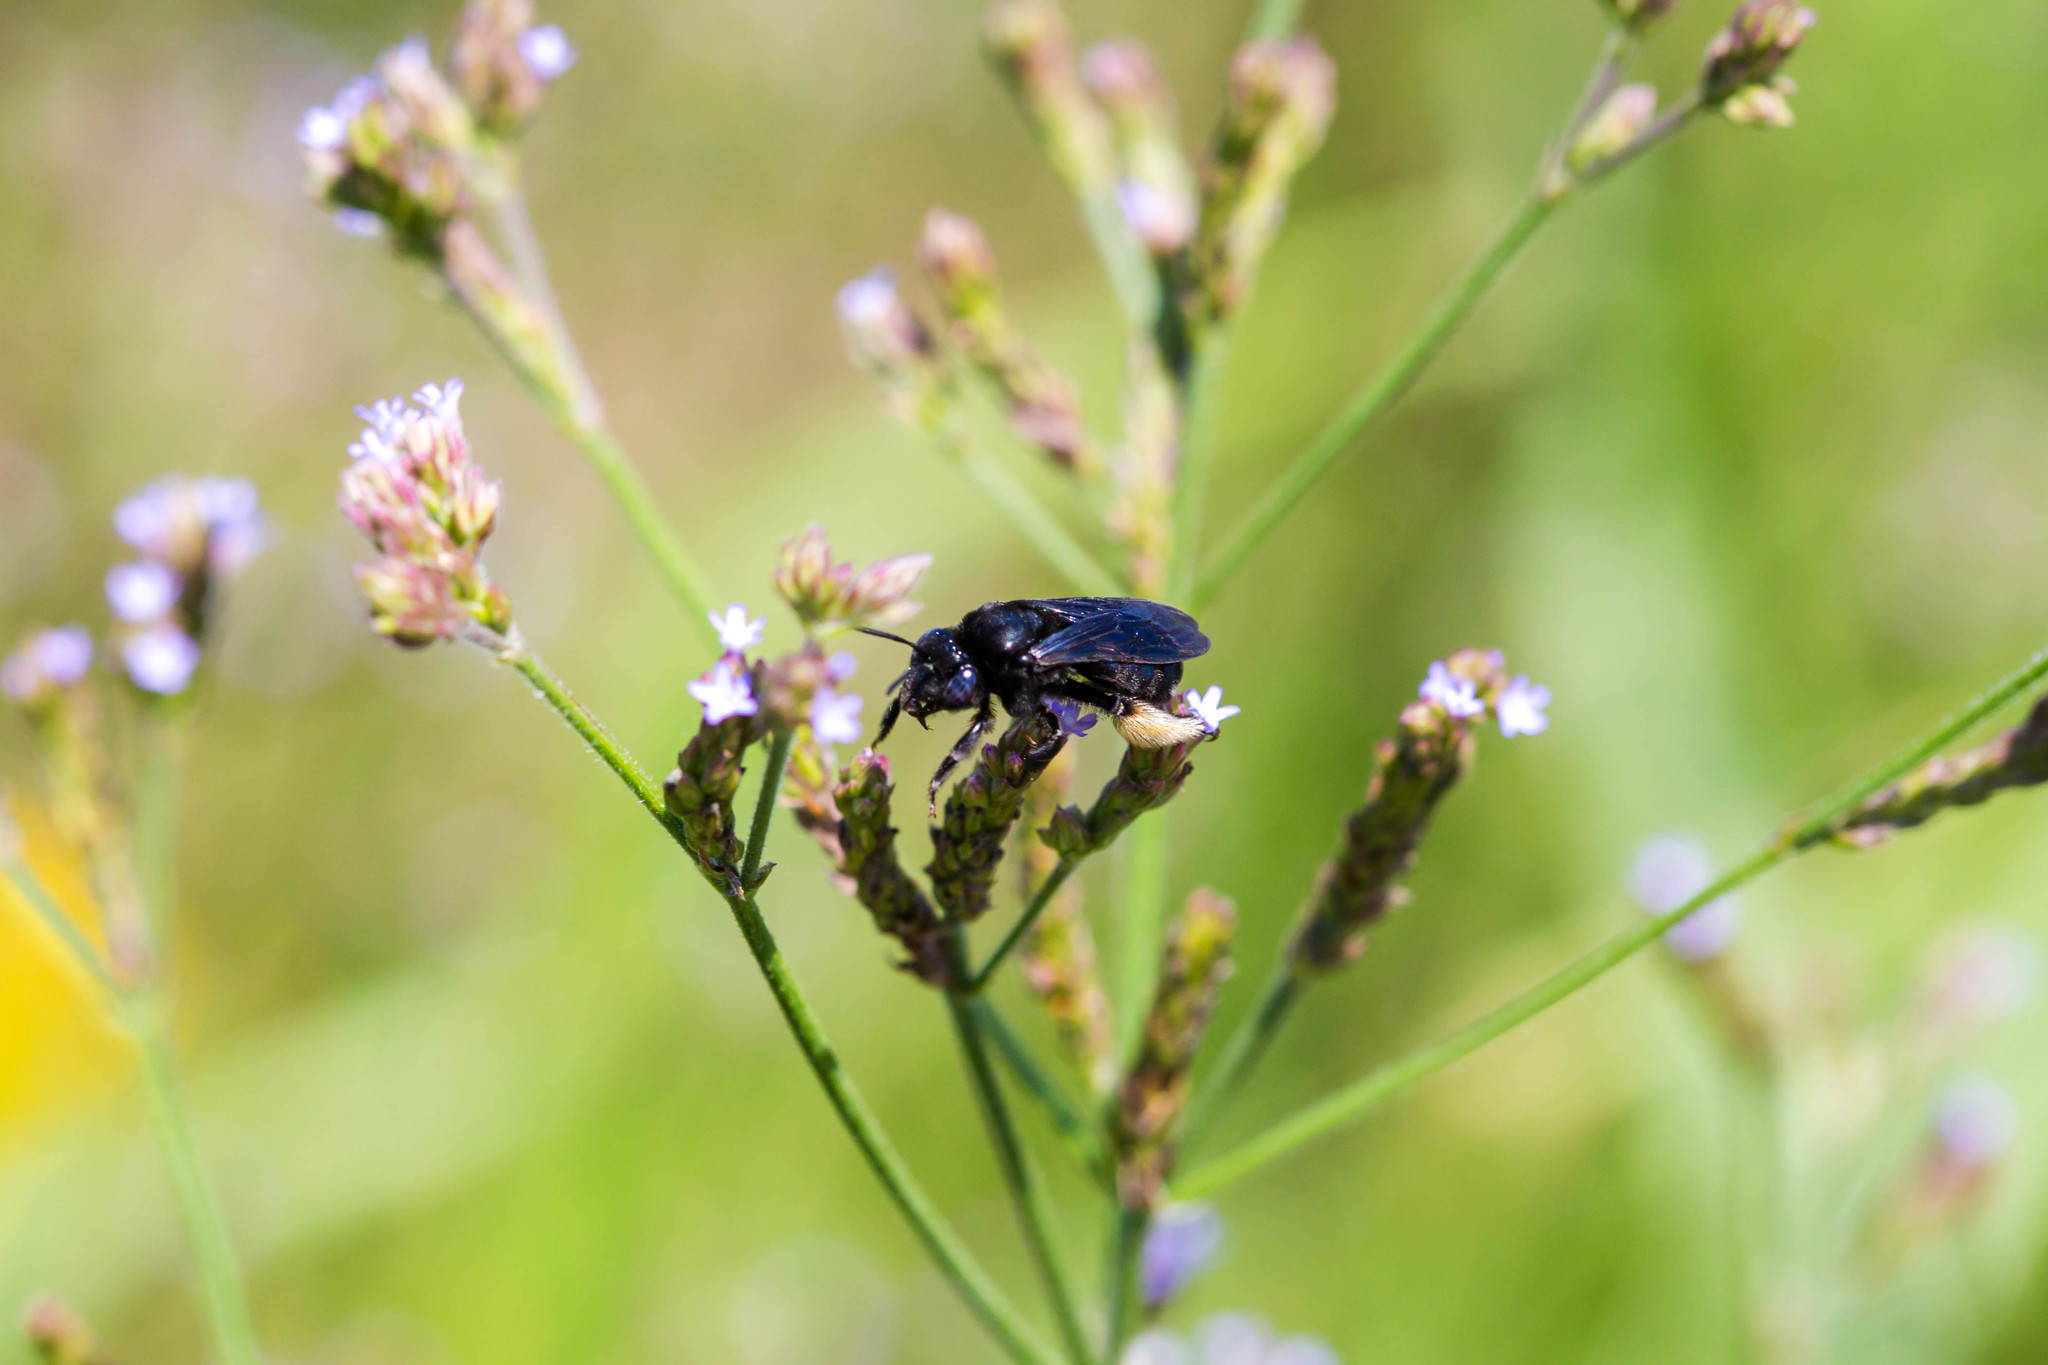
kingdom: Animalia
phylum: Arthropoda
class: Insecta
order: Hymenoptera
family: Apidae
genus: Melissodes
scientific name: Melissodes bimaculatus
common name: Two-spotted long-horned bee
